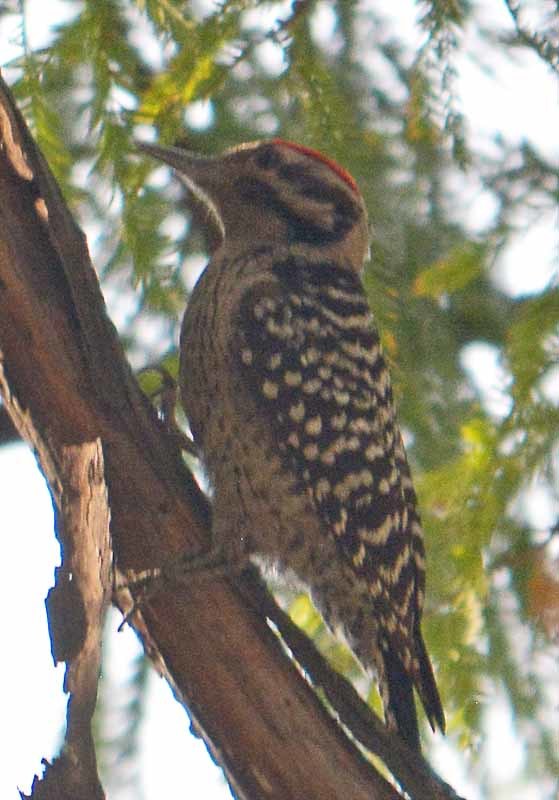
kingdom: Animalia
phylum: Chordata
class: Aves
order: Piciformes
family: Picidae
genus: Dryobates
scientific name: Dryobates scalaris
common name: Ladder-backed woodpecker
